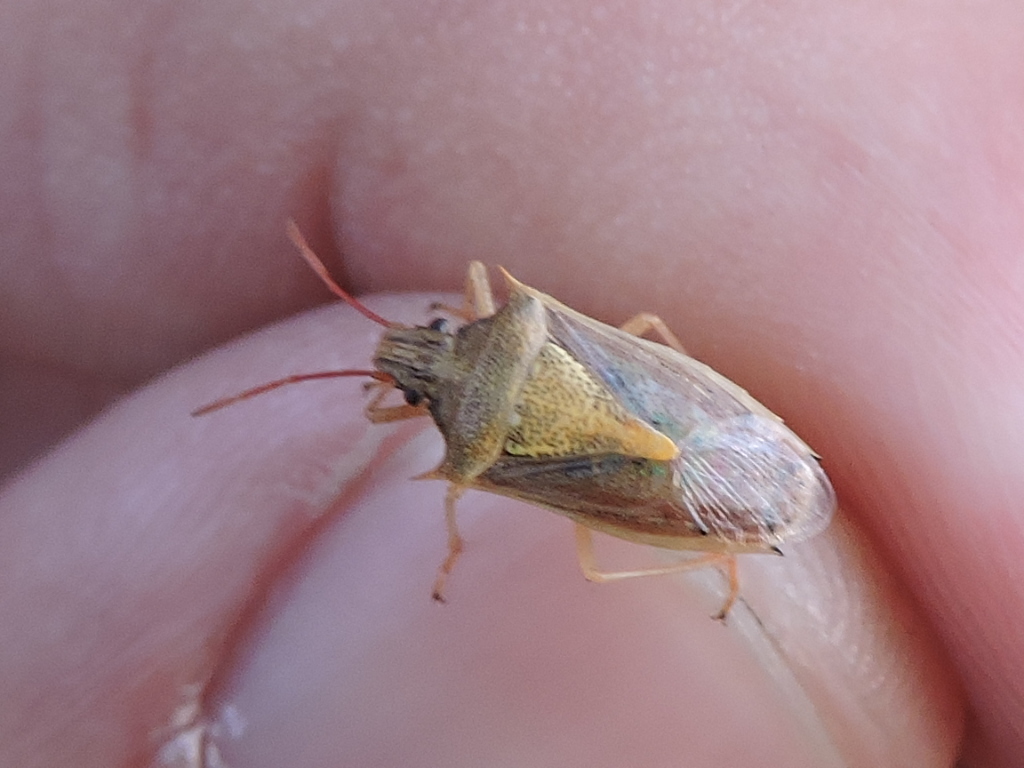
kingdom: Animalia
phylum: Arthropoda
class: Insecta
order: Hemiptera
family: Pentatomidae
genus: Oebalus
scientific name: Oebalus pugnax
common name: Rice stink bug
